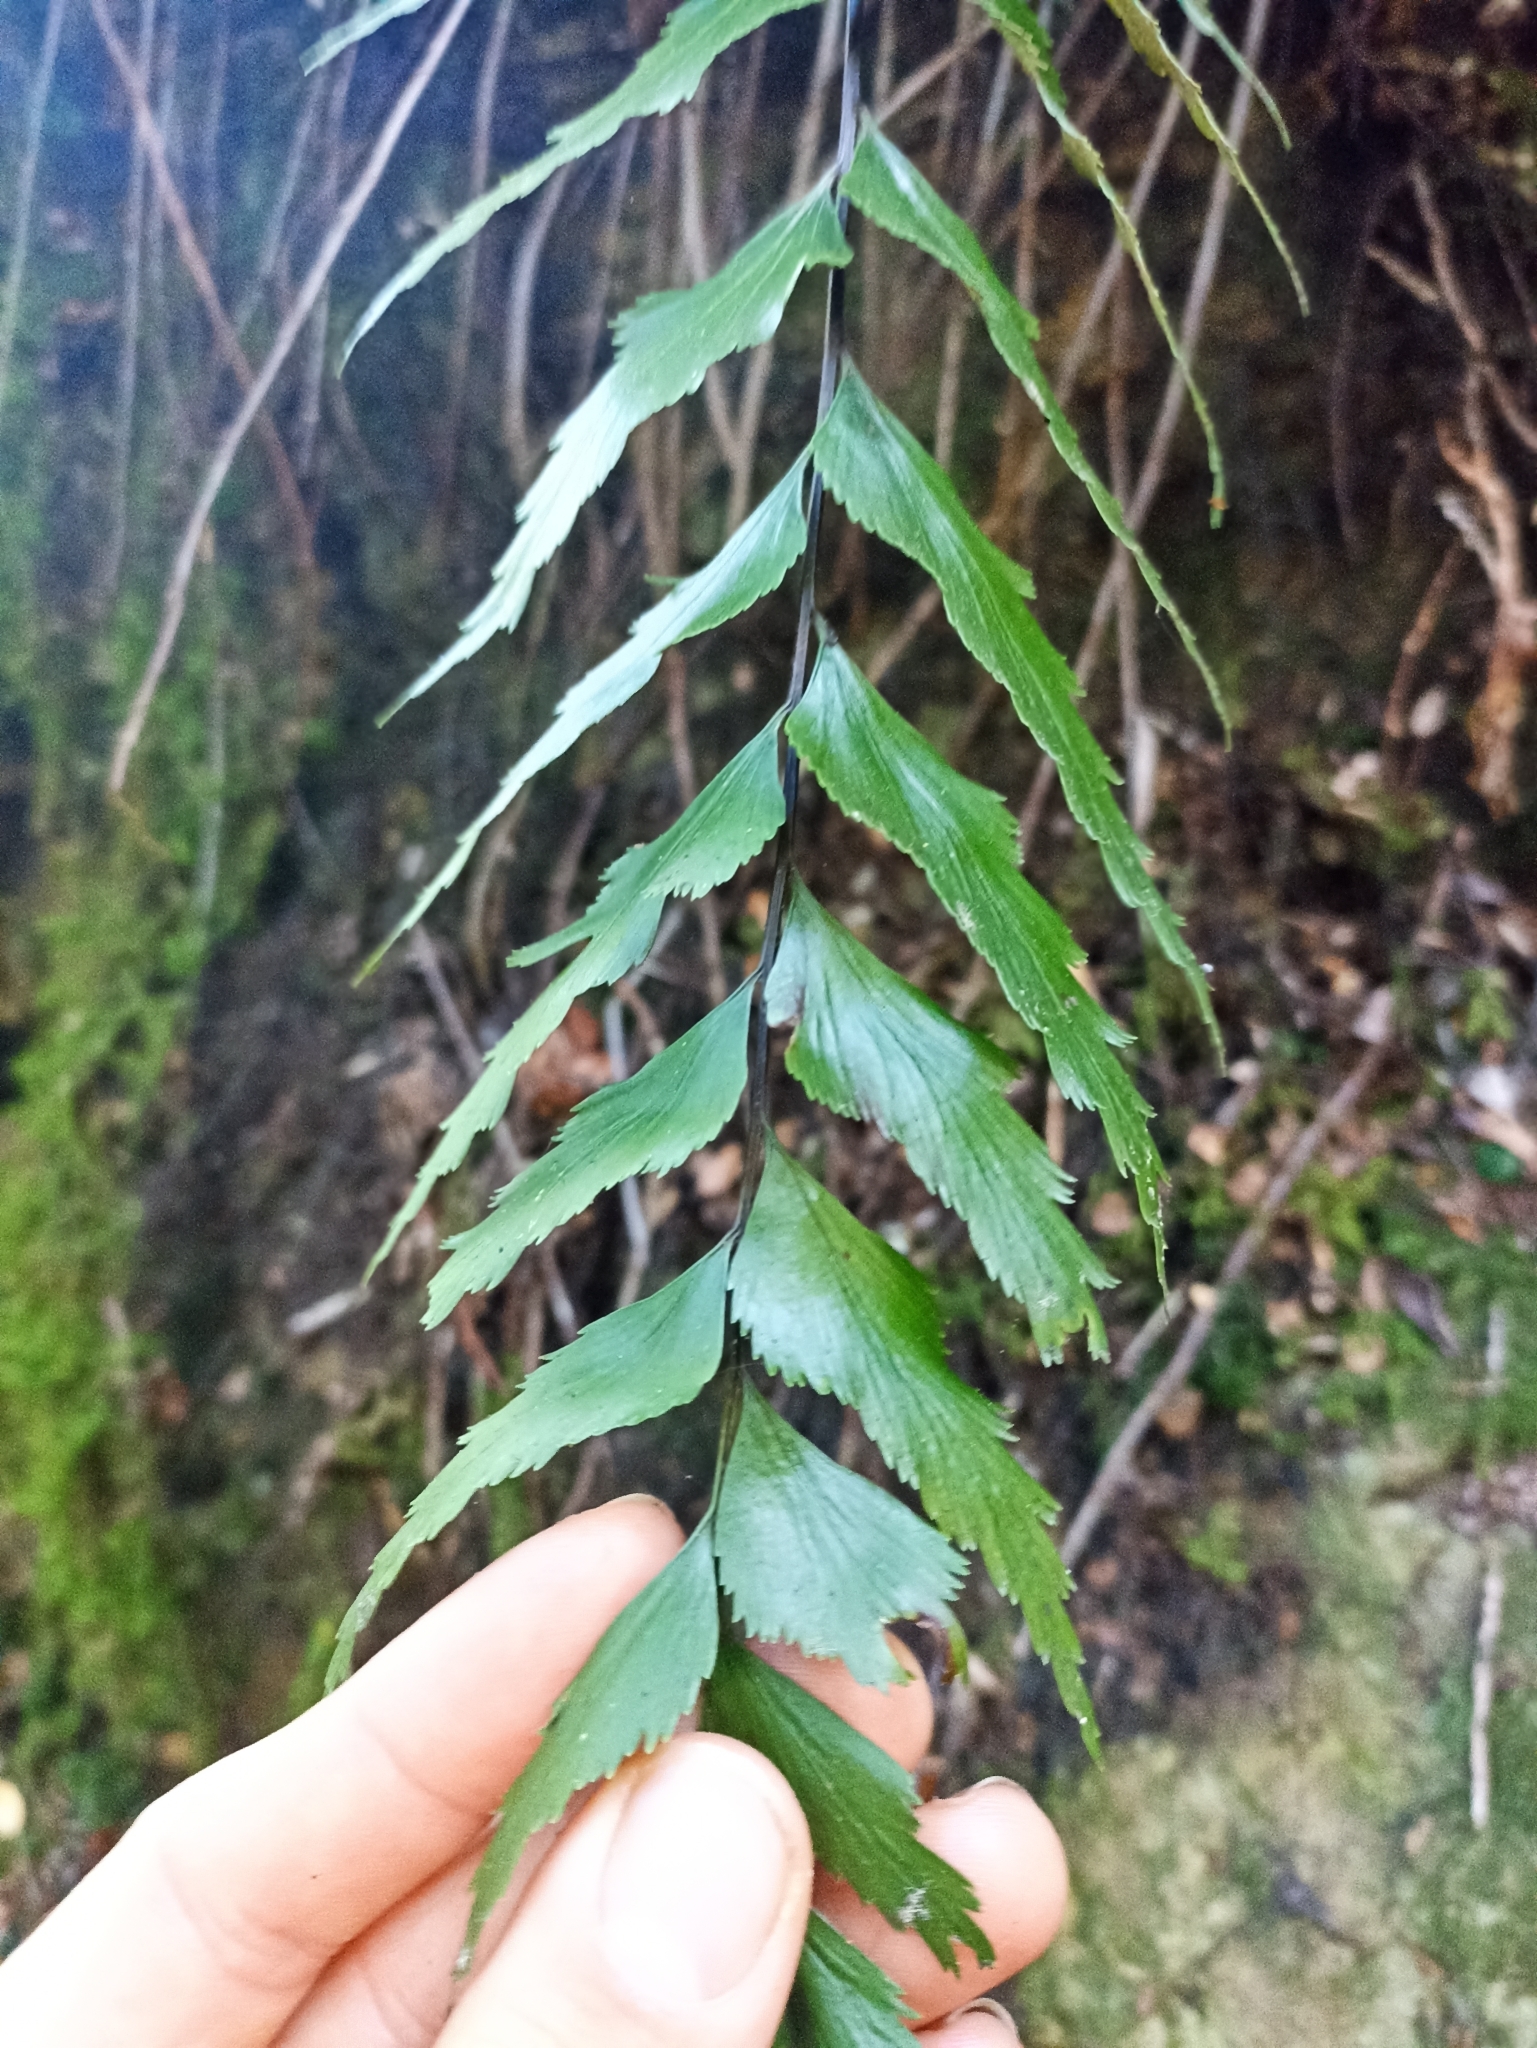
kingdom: Plantae
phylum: Tracheophyta
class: Polypodiopsida
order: Polypodiales
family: Aspleniaceae
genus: Asplenium
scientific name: Asplenium polyodon
